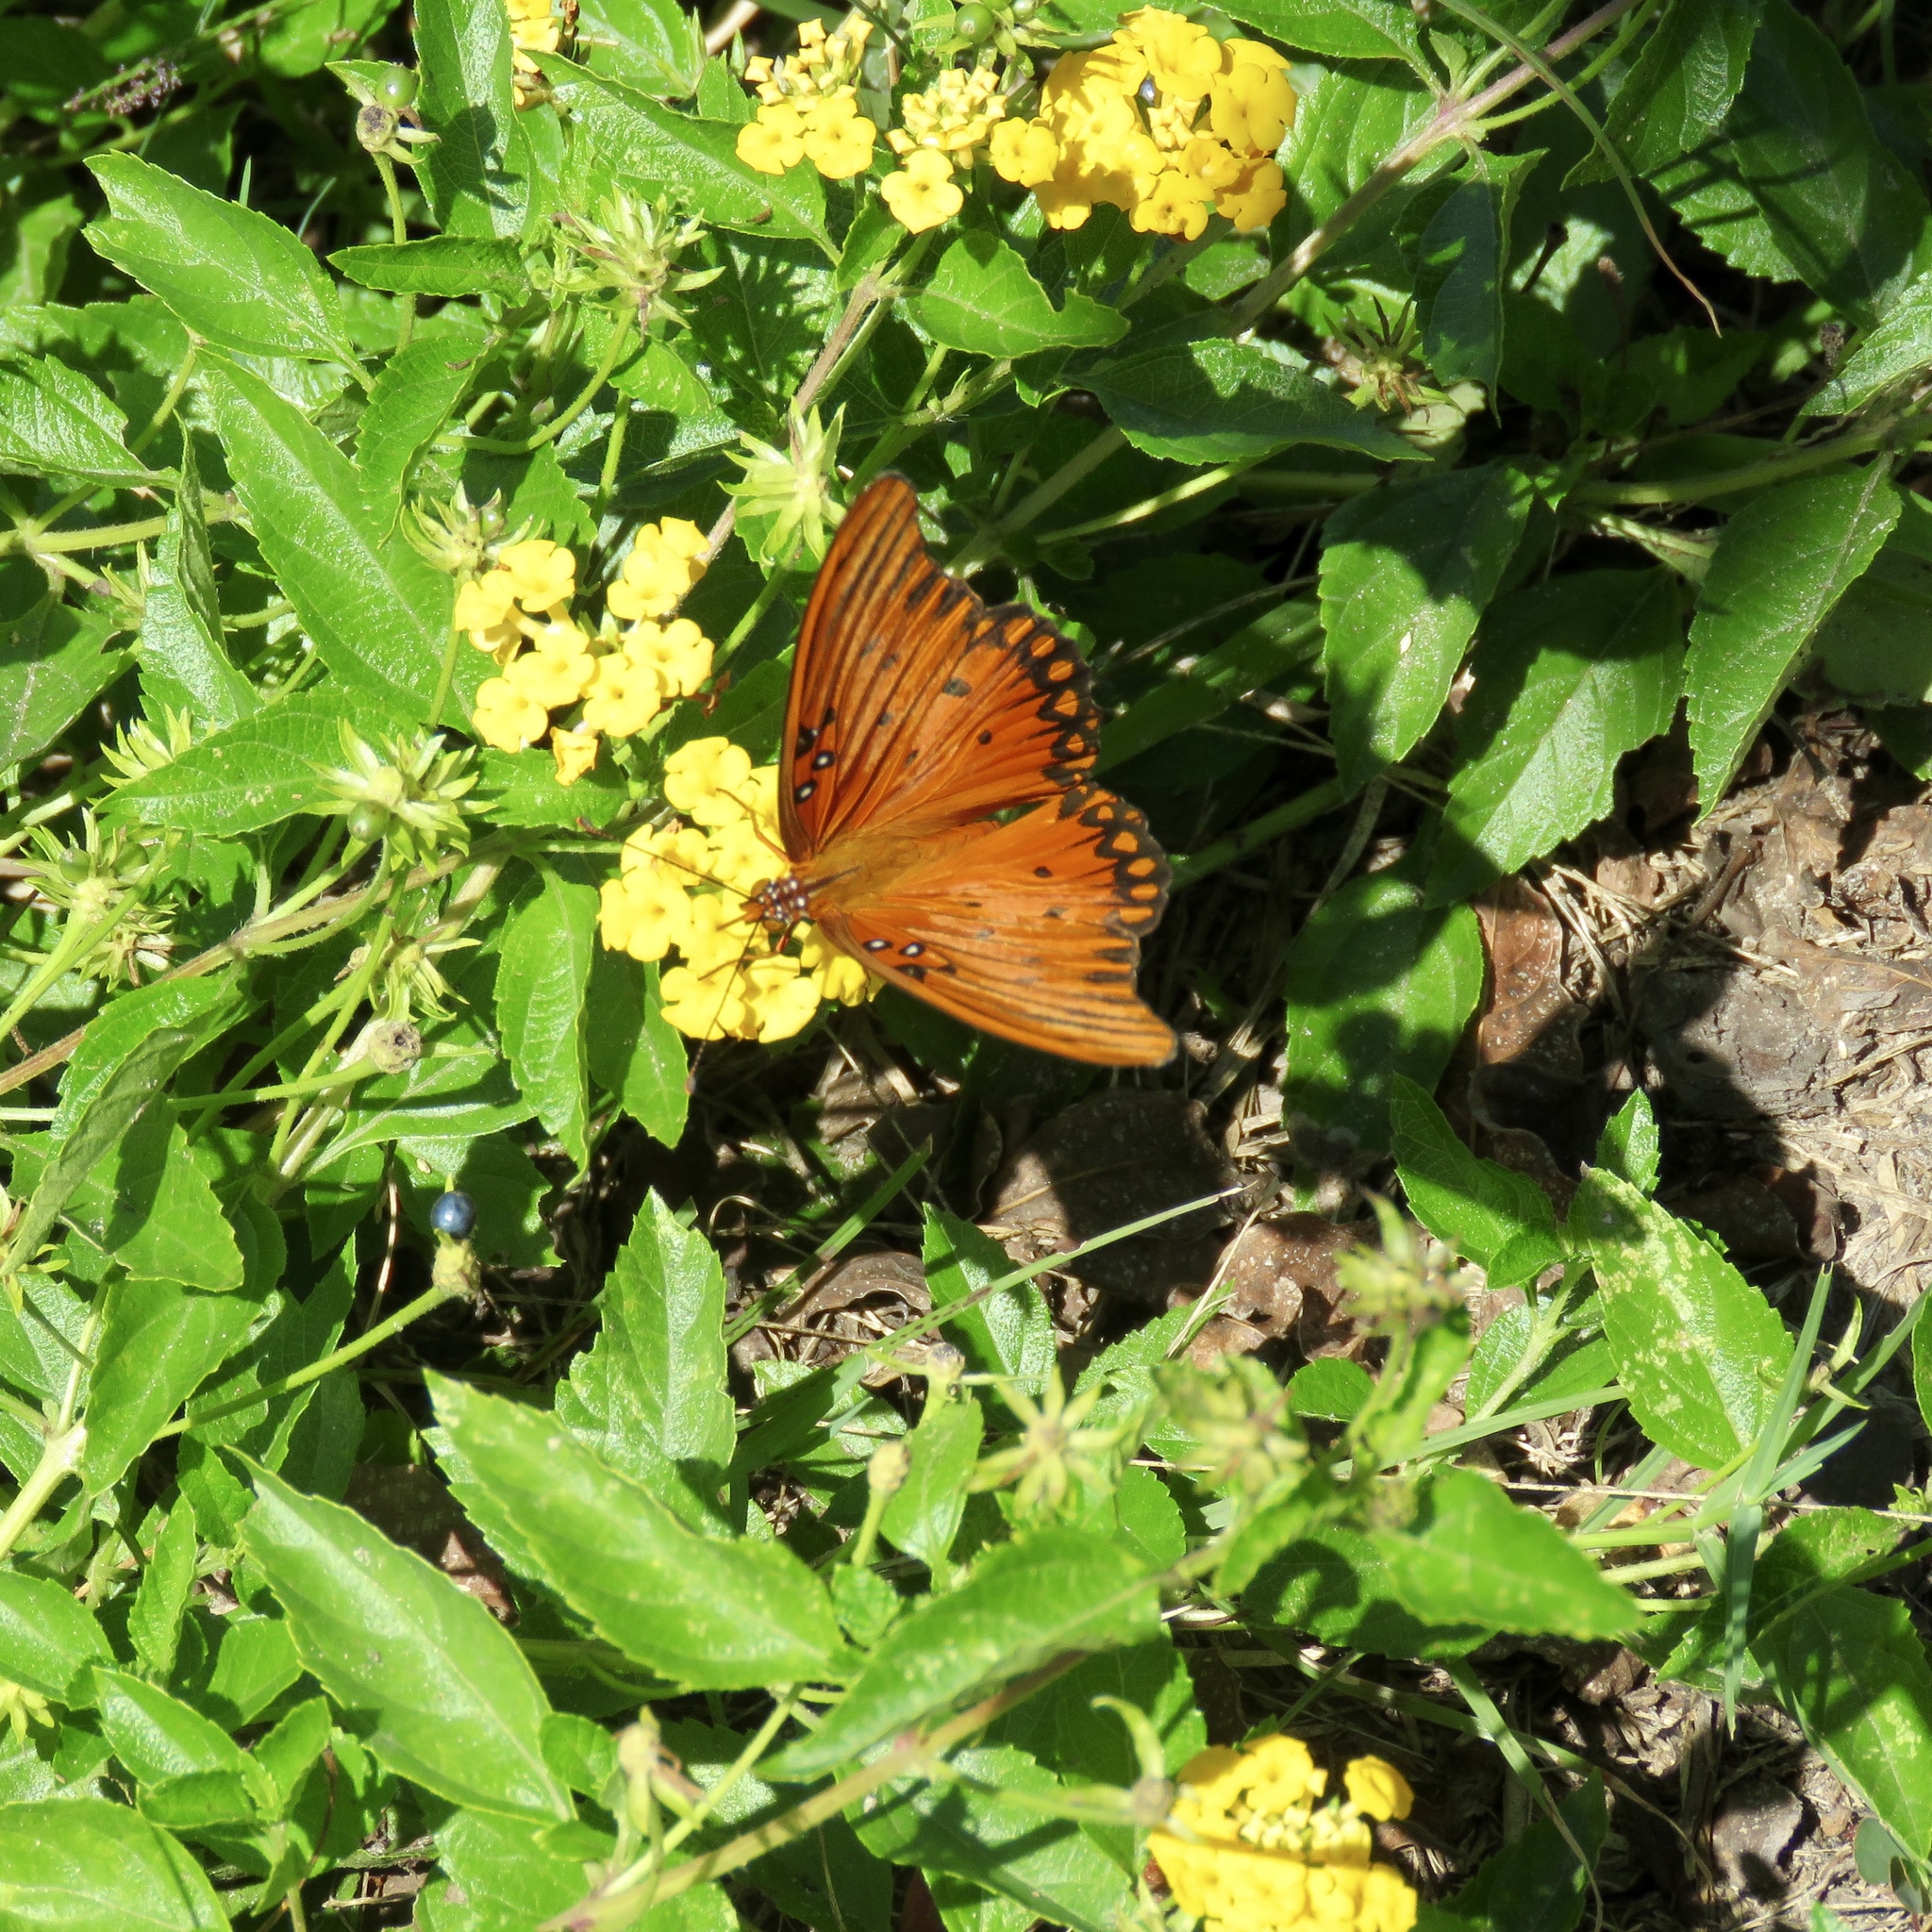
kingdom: Animalia
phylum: Arthropoda
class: Insecta
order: Lepidoptera
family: Nymphalidae
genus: Dione
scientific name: Dione vanillae
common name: Gulf fritillary
